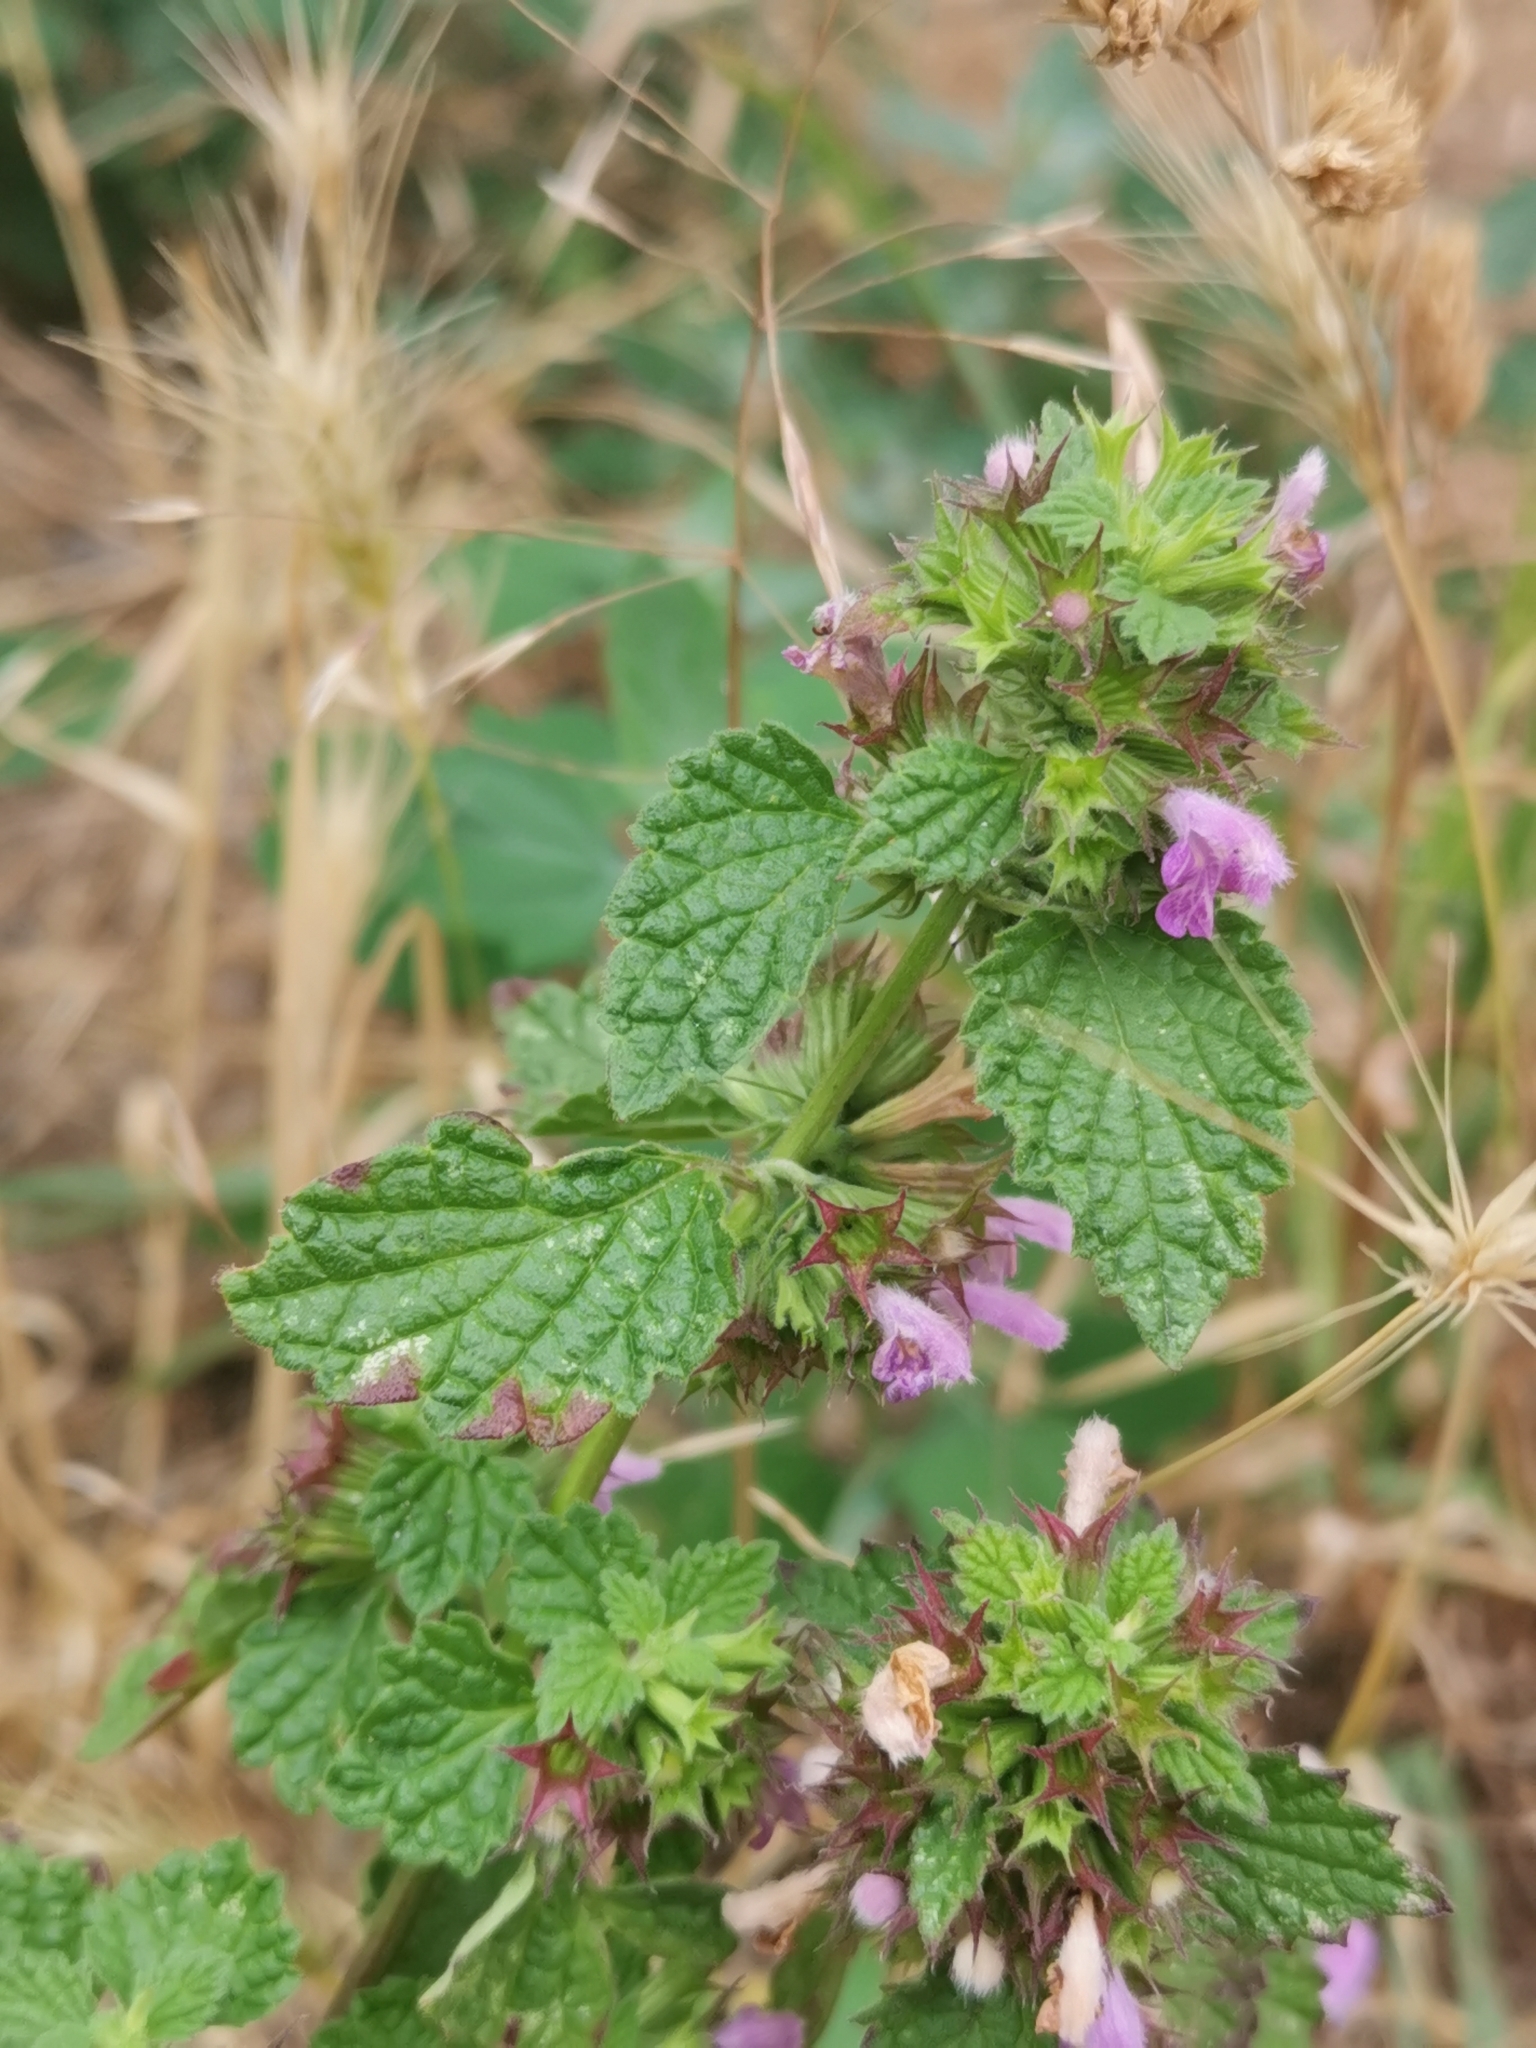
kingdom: Plantae
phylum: Tracheophyta
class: Magnoliopsida
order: Lamiales
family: Lamiaceae
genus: Ballota
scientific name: Ballota nigra
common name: Black horehound
